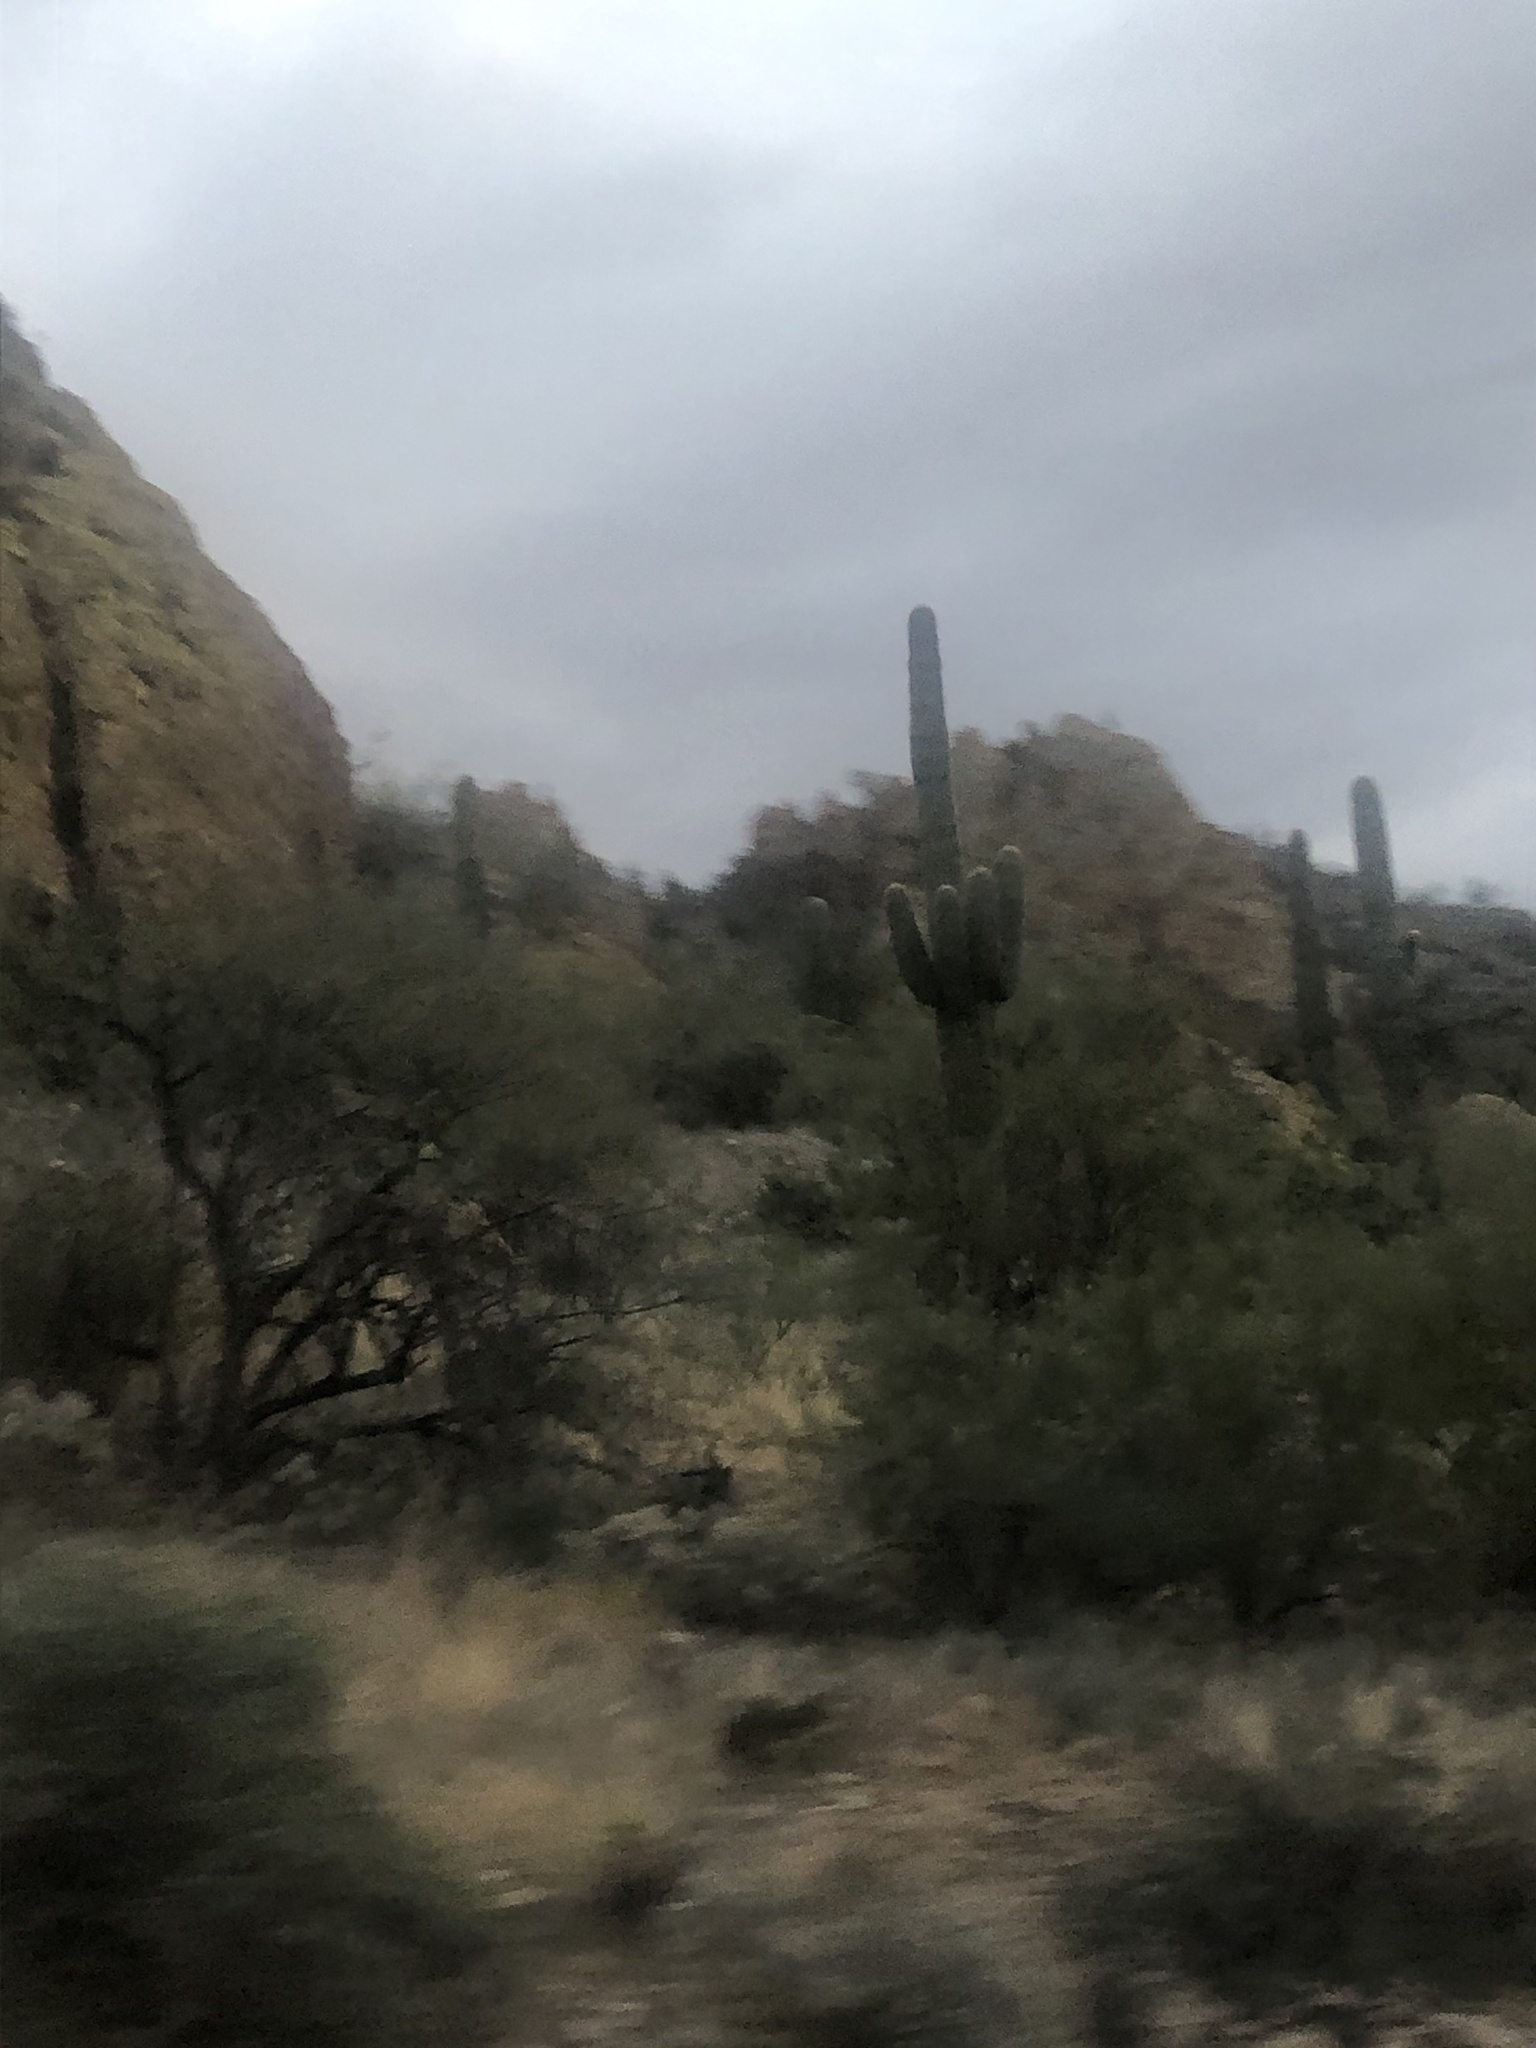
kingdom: Plantae
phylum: Tracheophyta
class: Magnoliopsida
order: Caryophyllales
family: Cactaceae
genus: Carnegiea
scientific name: Carnegiea gigantea
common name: Saguaro
